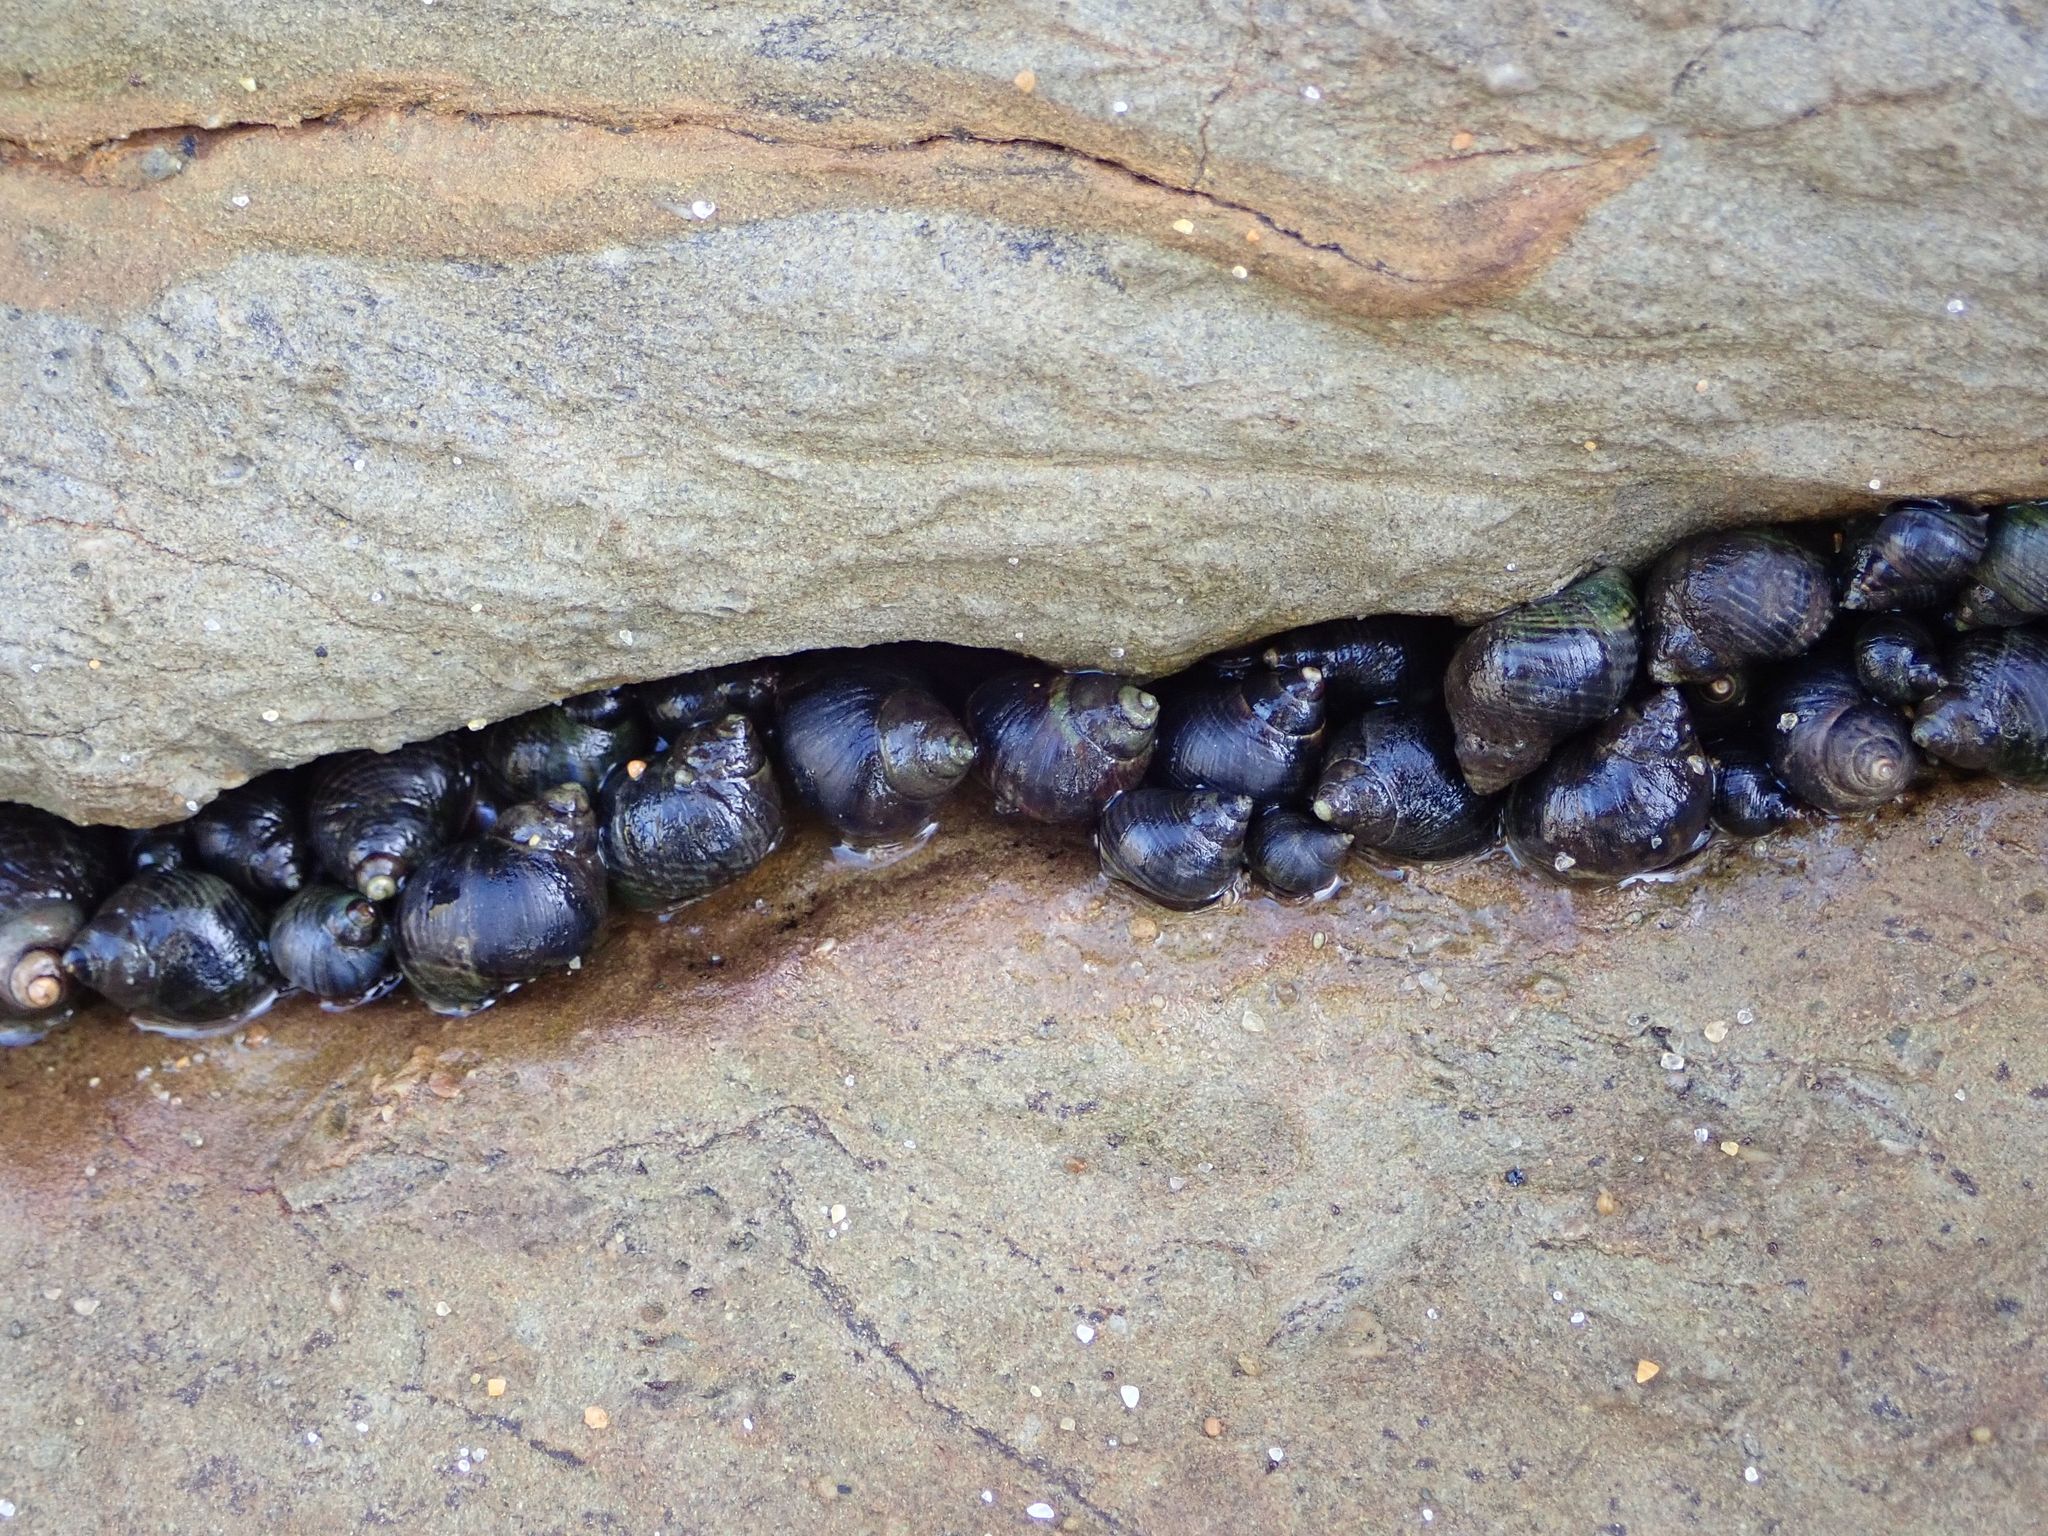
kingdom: Animalia
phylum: Mollusca
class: Gastropoda
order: Littorinimorpha
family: Littorinidae
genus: Austrolittorina
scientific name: Austrolittorina cincta
